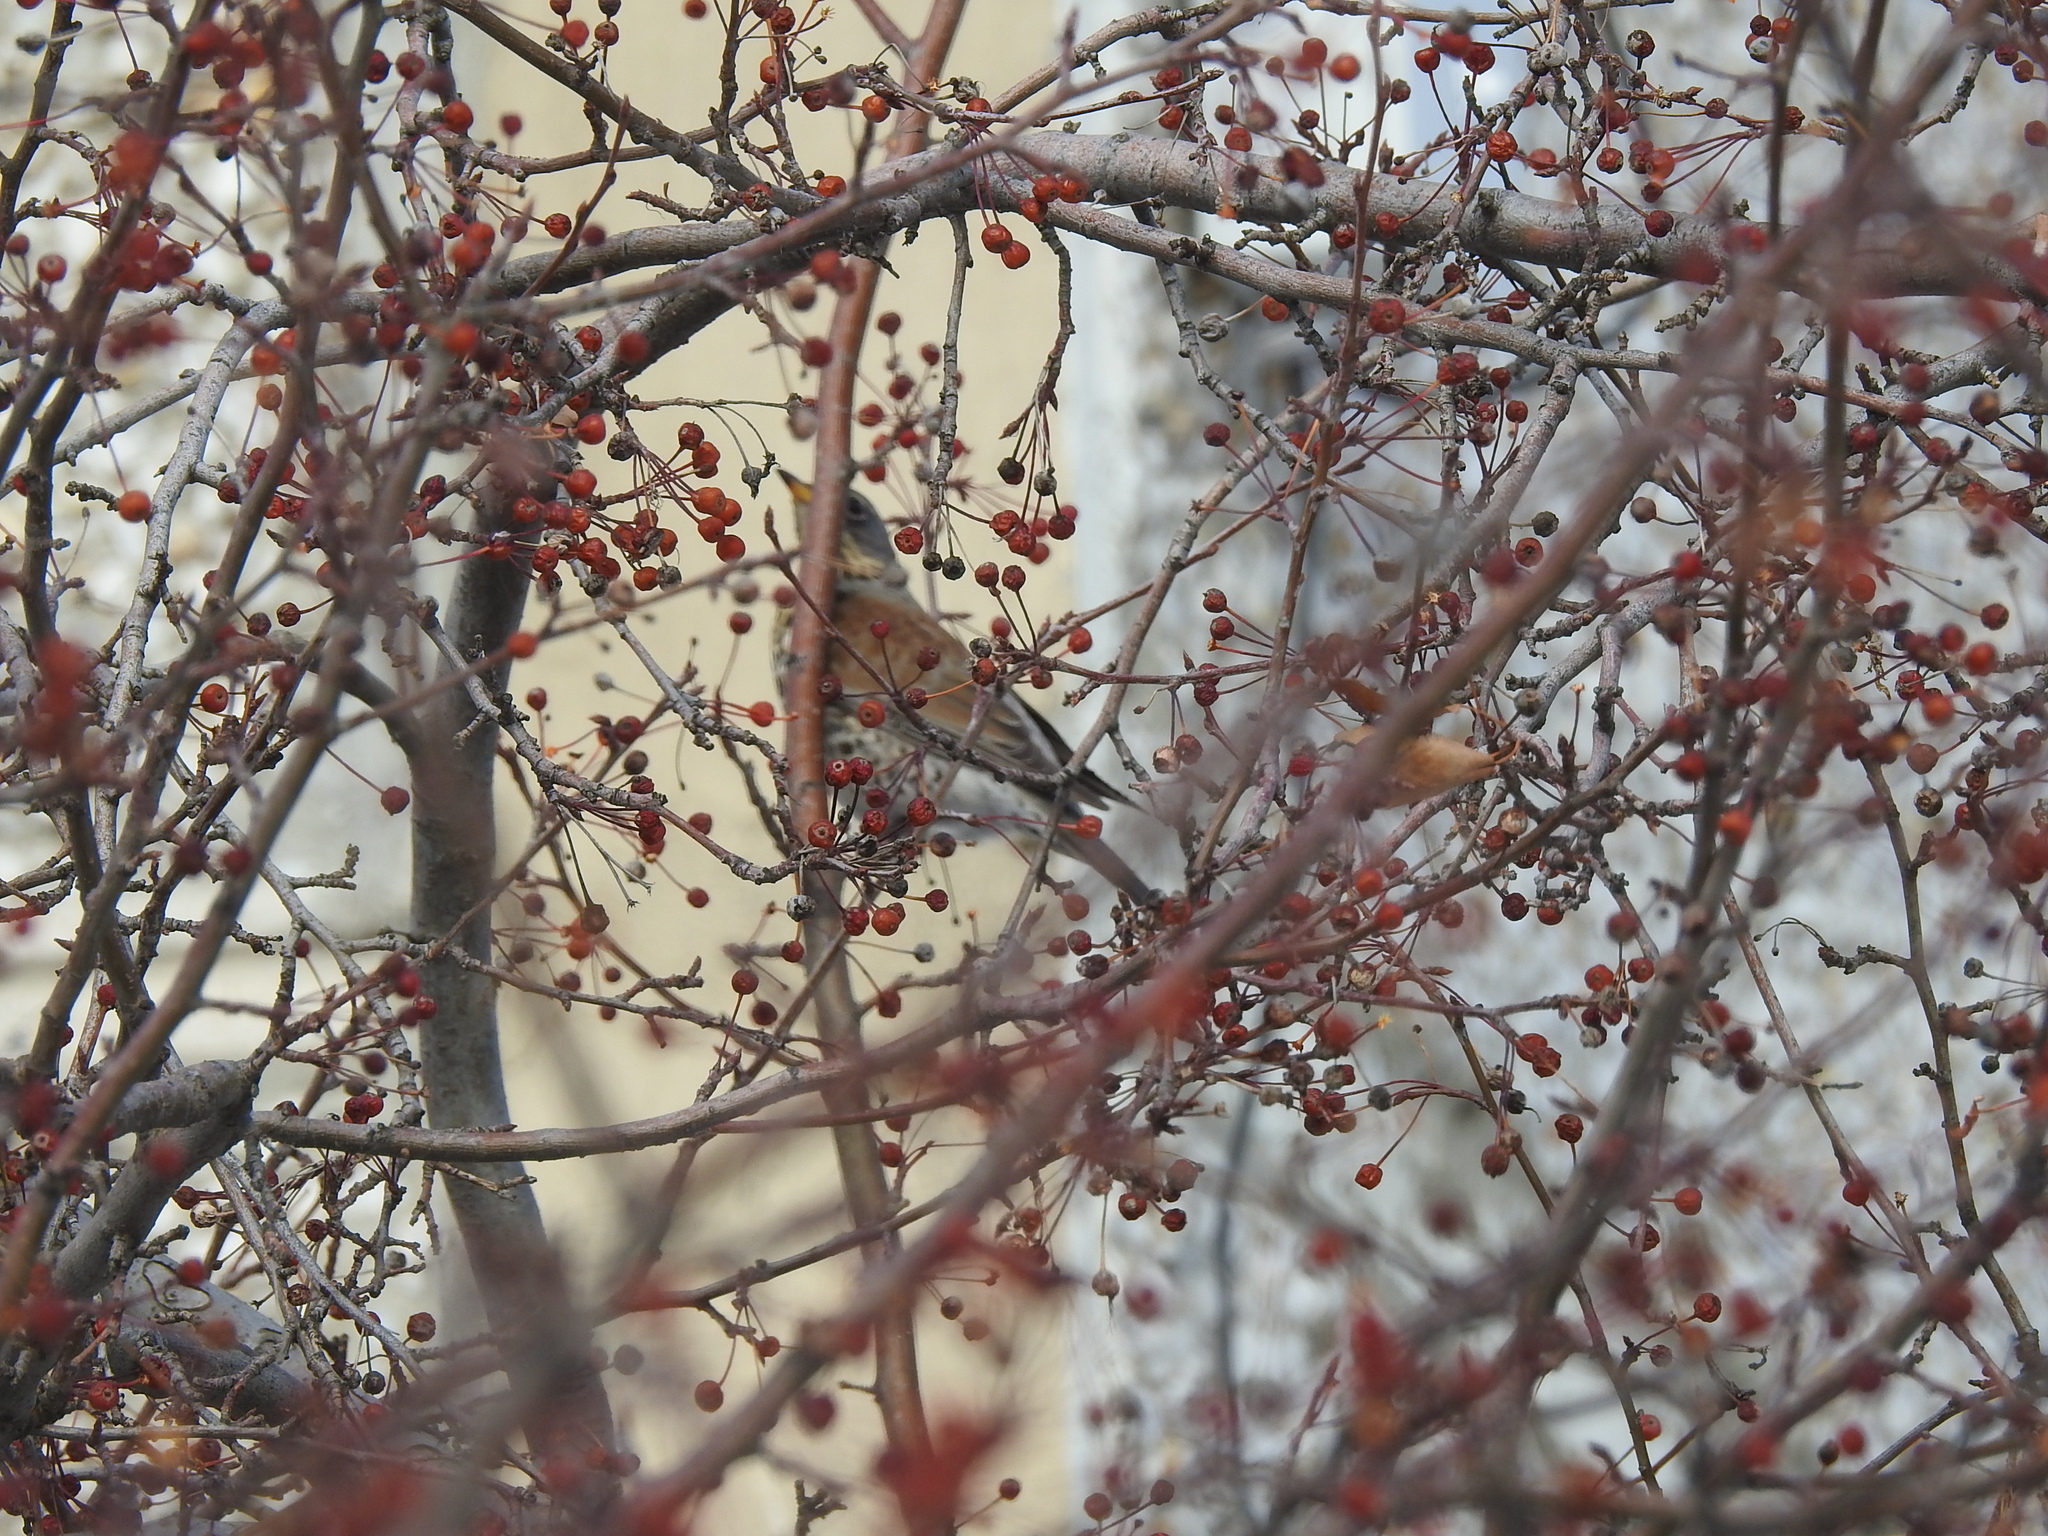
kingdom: Animalia
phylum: Chordata
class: Aves
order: Passeriformes
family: Turdidae
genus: Turdus
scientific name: Turdus pilaris
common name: Fieldfare
